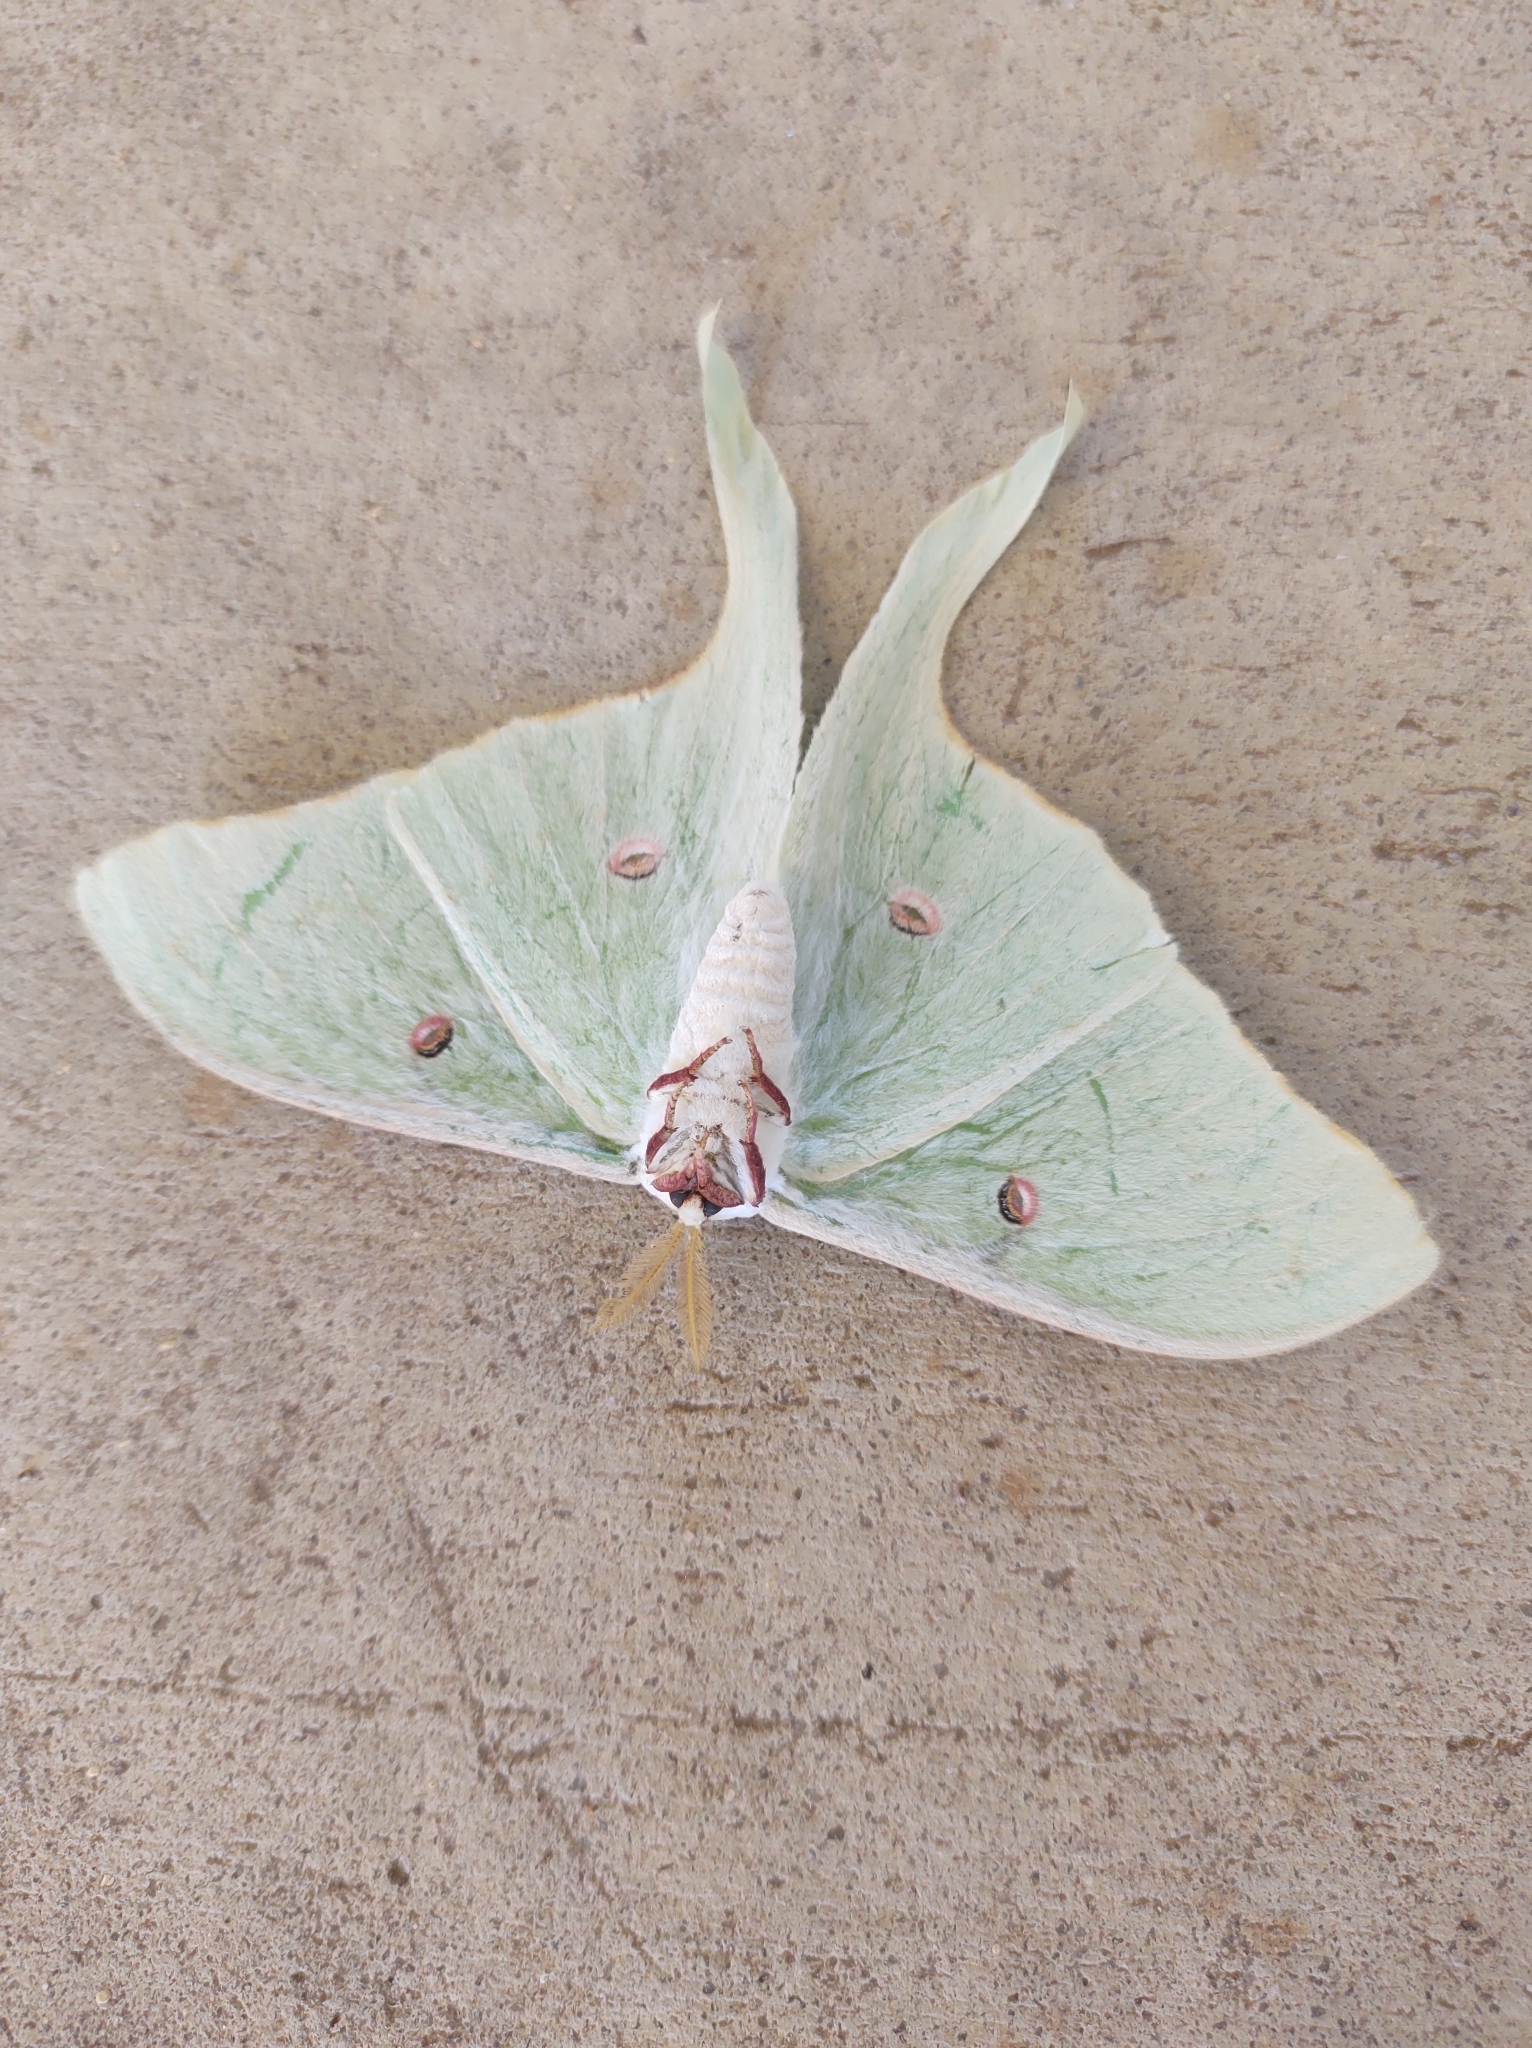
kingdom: Animalia
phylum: Arthropoda
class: Insecta
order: Lepidoptera
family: Saturniidae
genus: Actias
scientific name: Actias luna
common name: Luna moth
